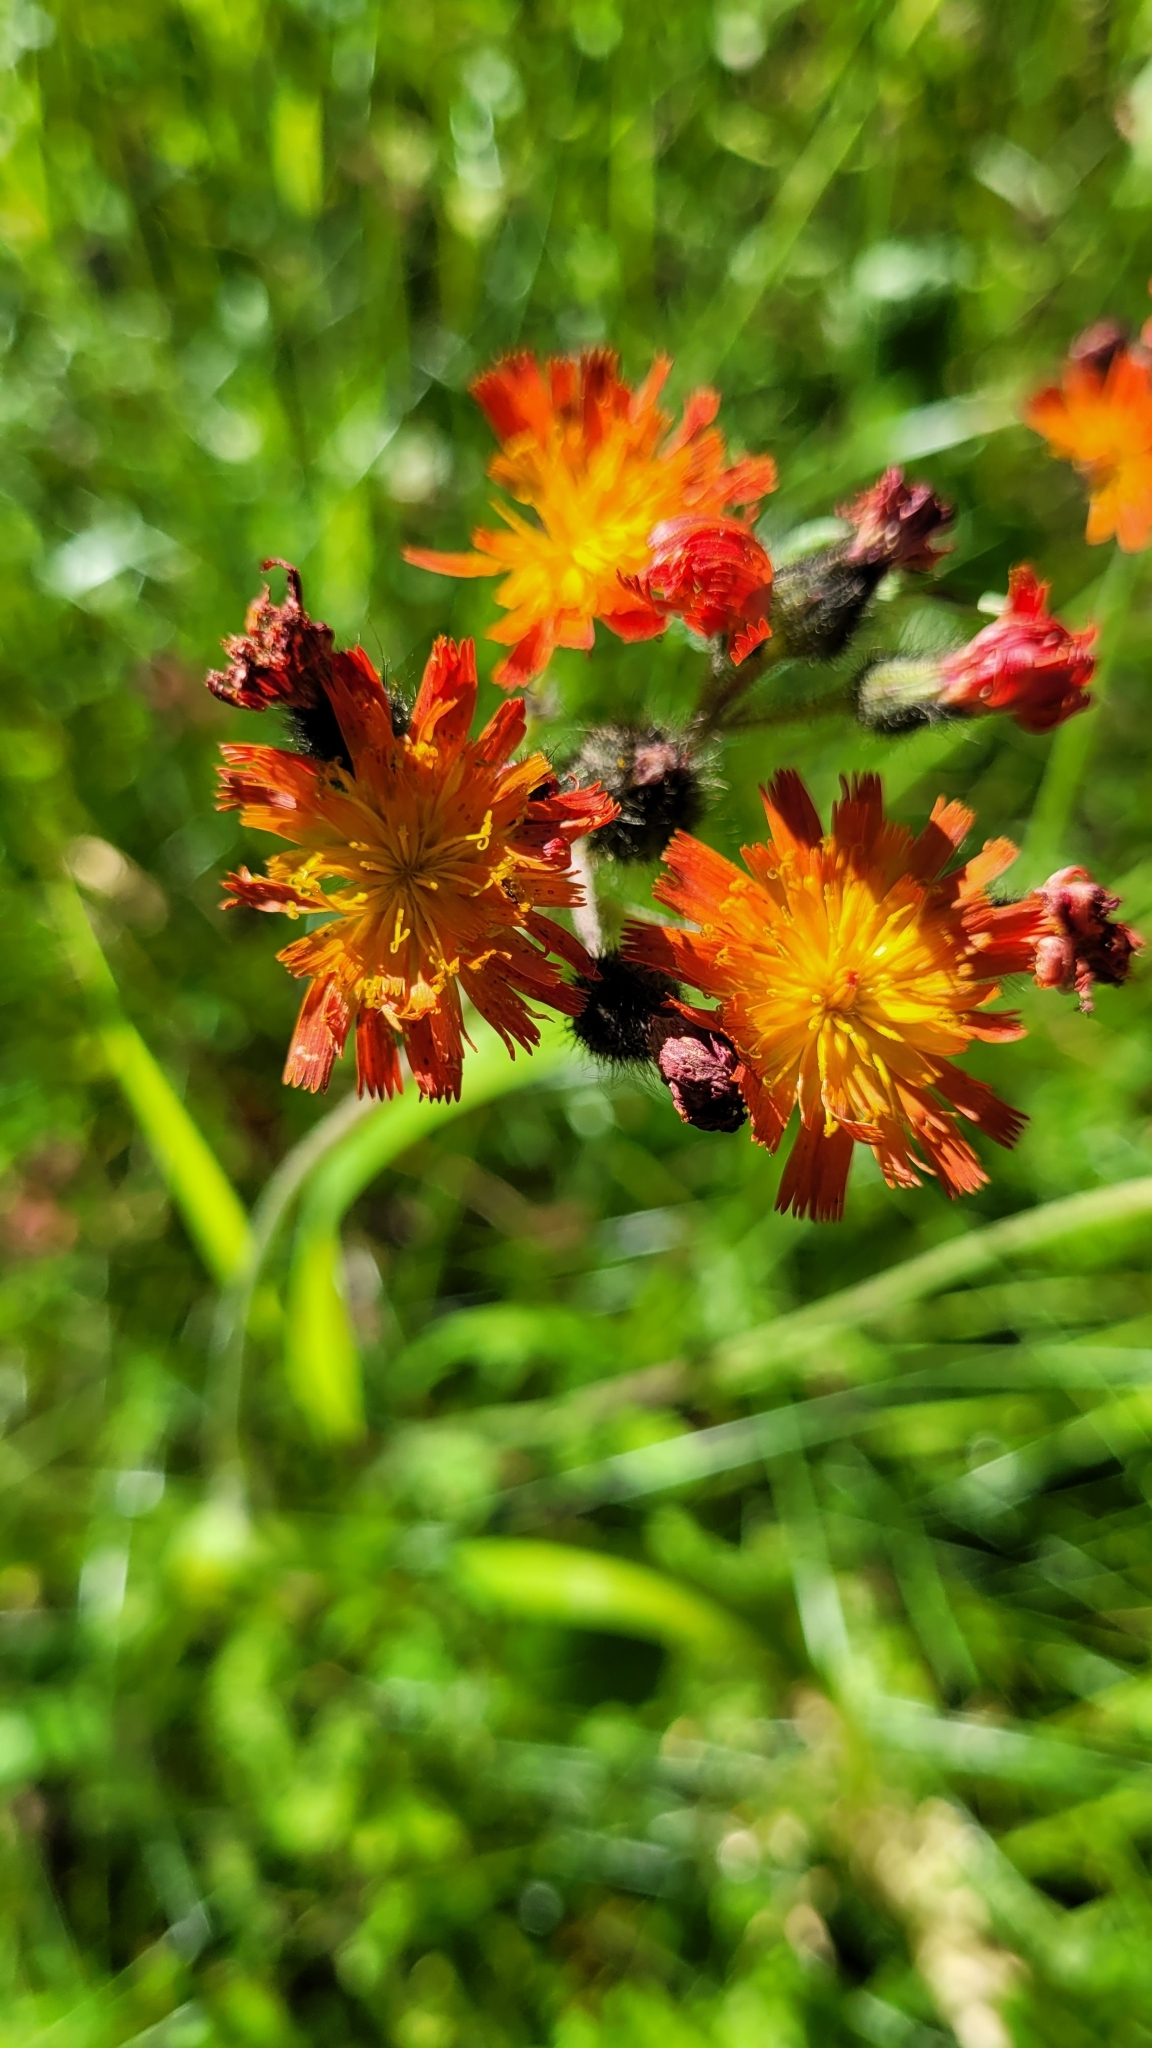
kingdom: Plantae
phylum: Tracheophyta
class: Magnoliopsida
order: Asterales
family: Asteraceae
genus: Pilosella
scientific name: Pilosella aurantiaca
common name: Fox-and-cubs
